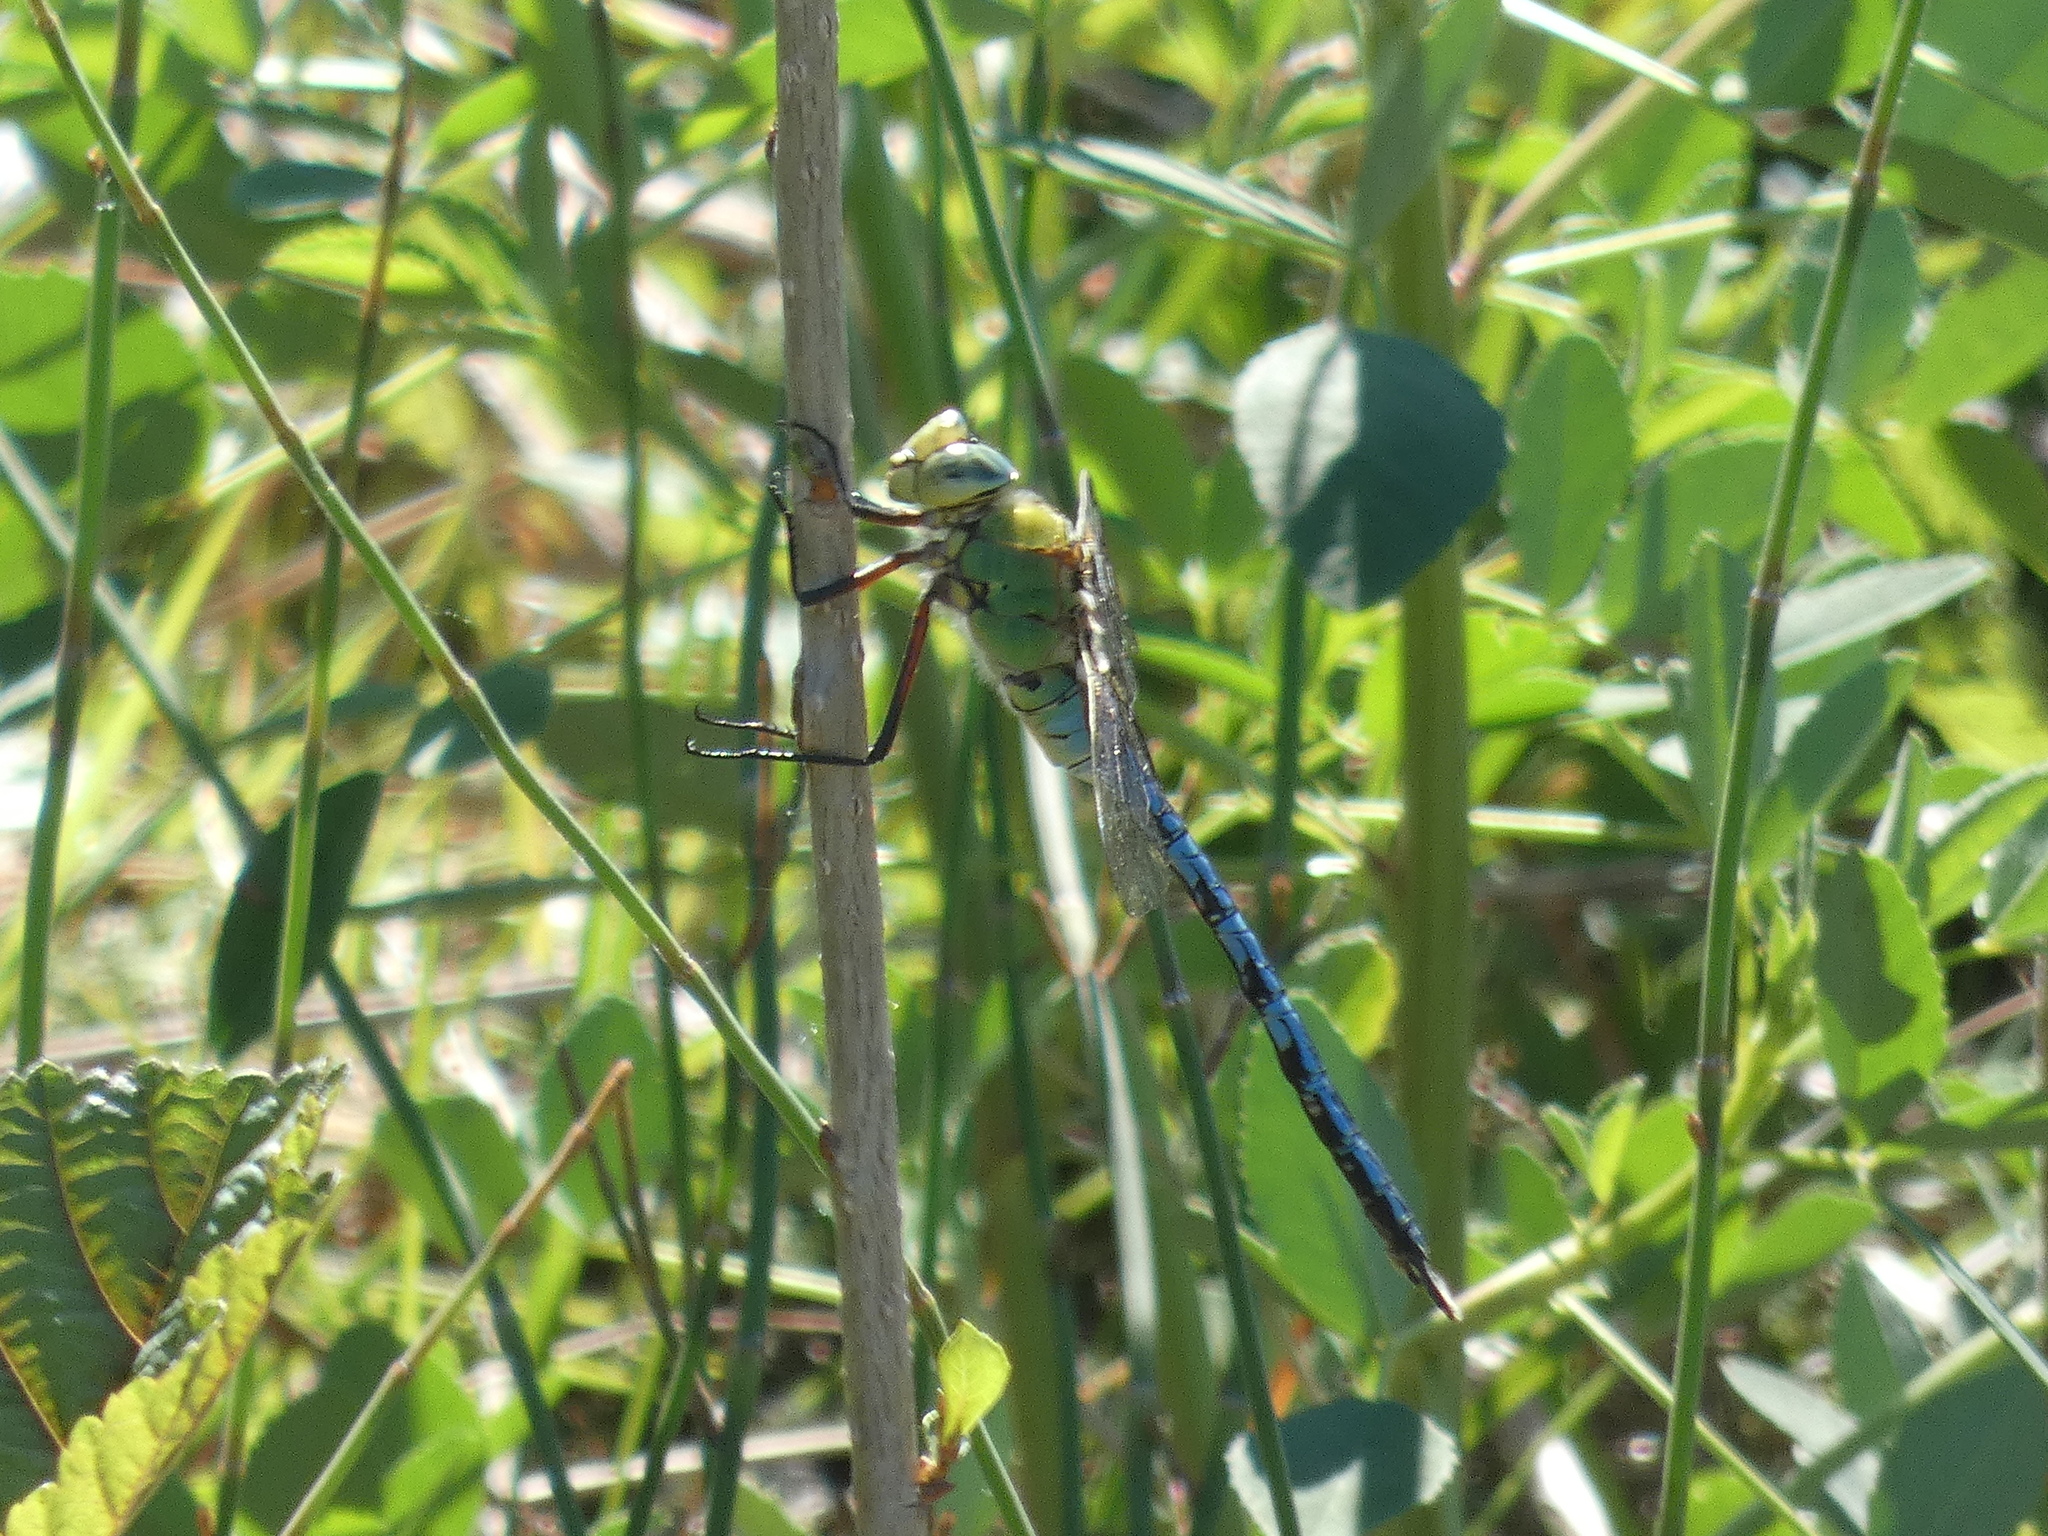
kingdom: Animalia
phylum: Arthropoda
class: Insecta
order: Odonata
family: Aeshnidae
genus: Anax
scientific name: Anax imperator
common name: Emperor dragonfly
